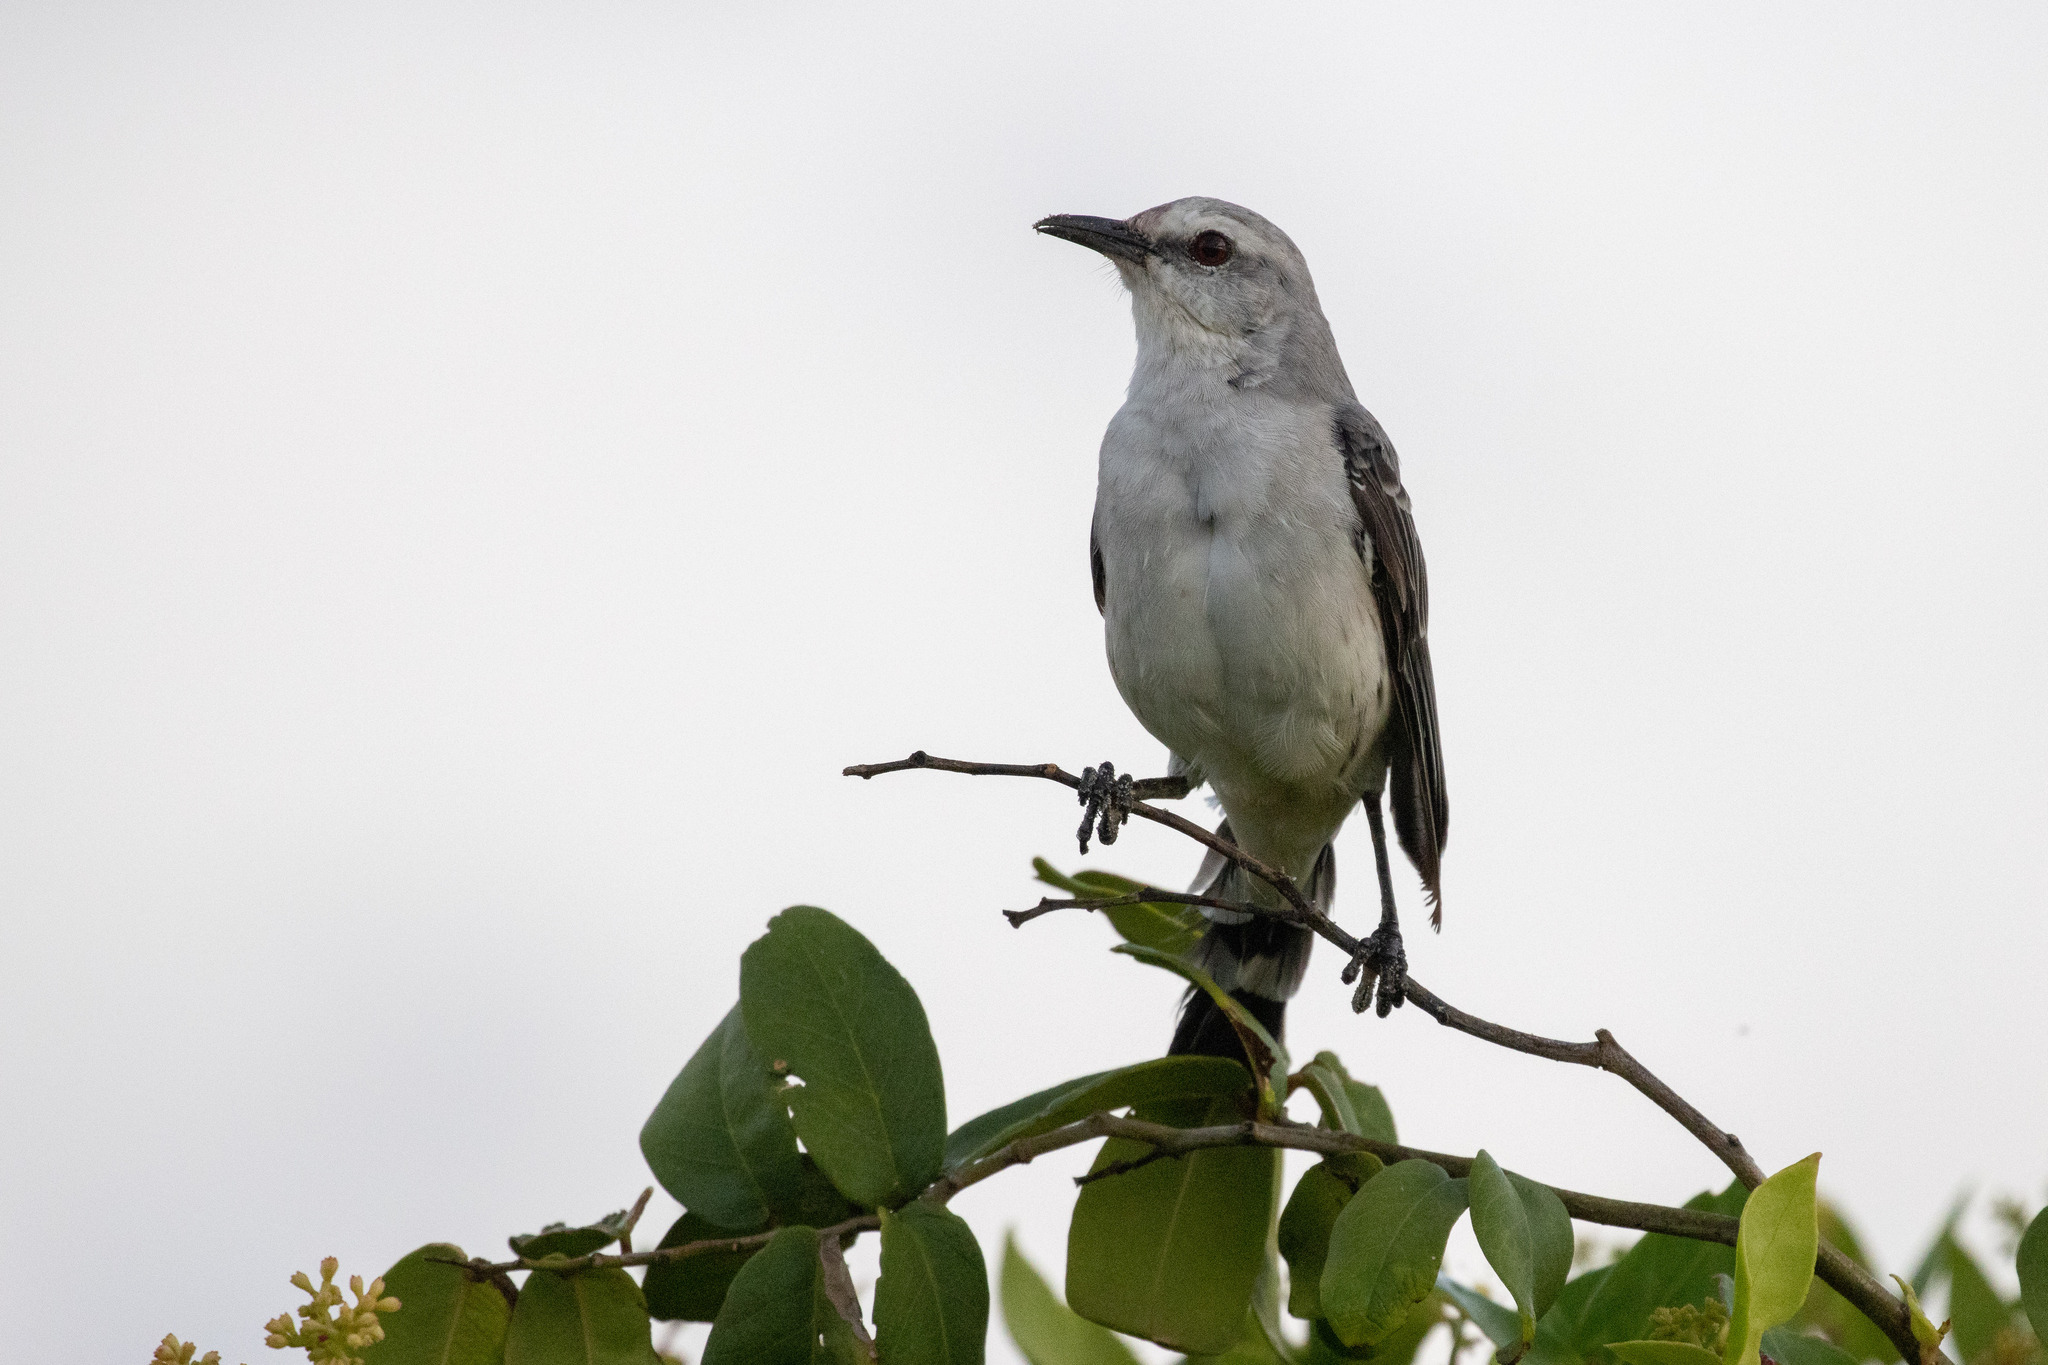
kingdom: Animalia
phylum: Chordata
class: Aves
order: Passeriformes
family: Mimidae
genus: Mimus
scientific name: Mimus gilvus
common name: Tropical mockingbird
